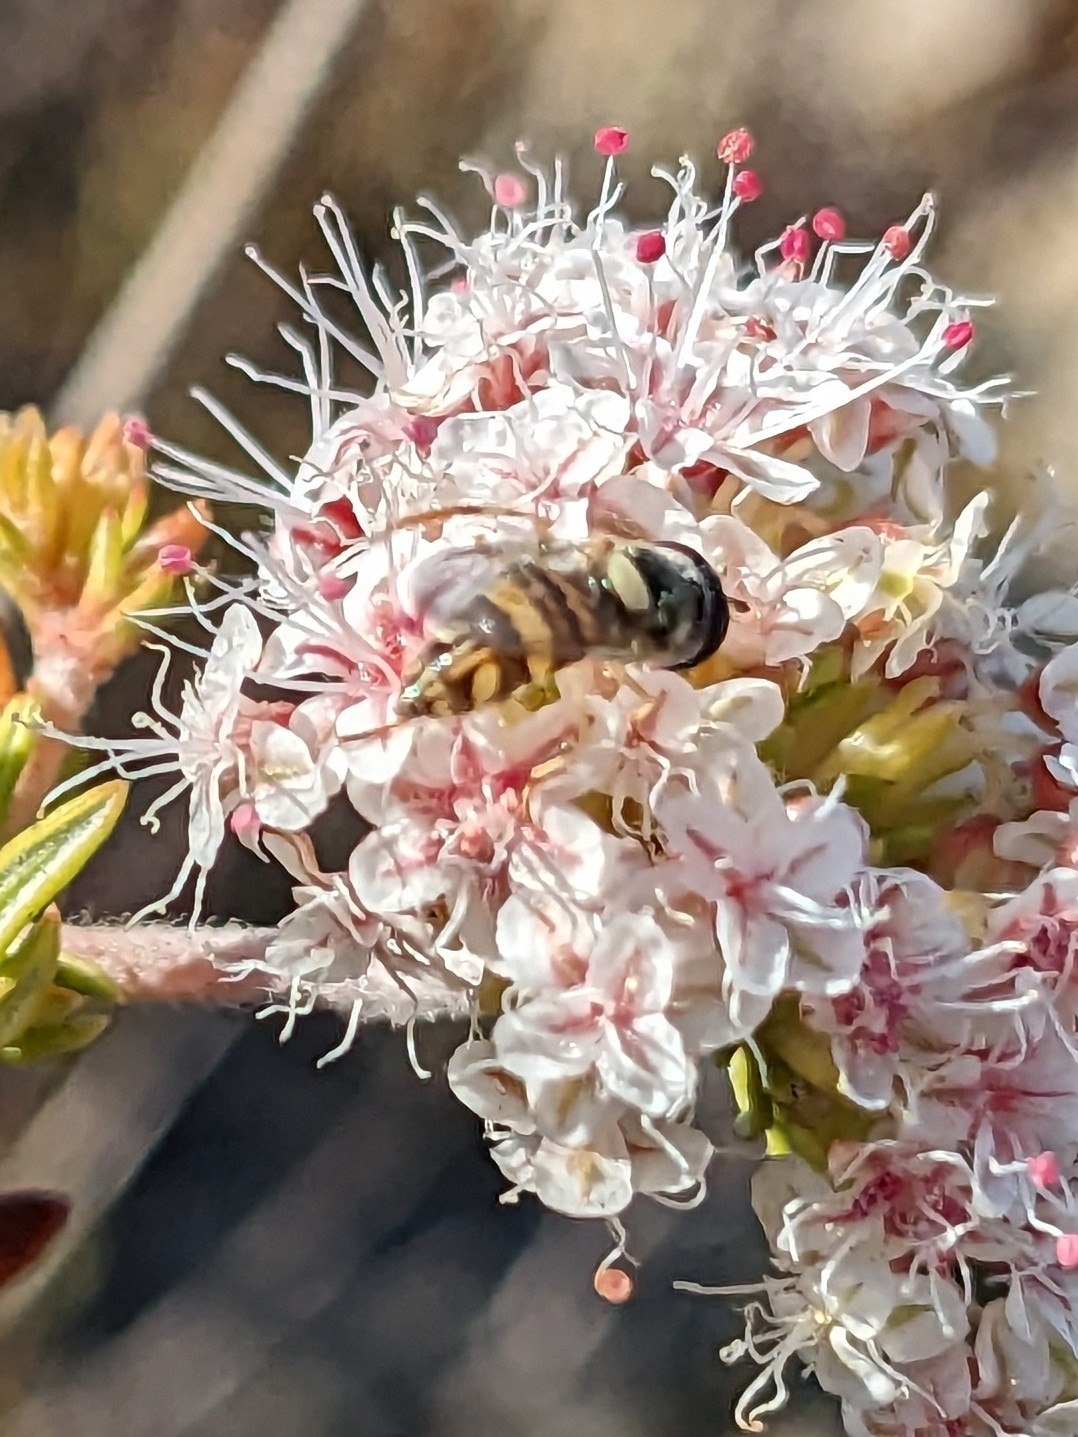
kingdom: Animalia
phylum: Arthropoda
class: Insecta
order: Diptera
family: Syrphidae
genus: Allograpta
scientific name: Allograpta exotica
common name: Syrphid fly
